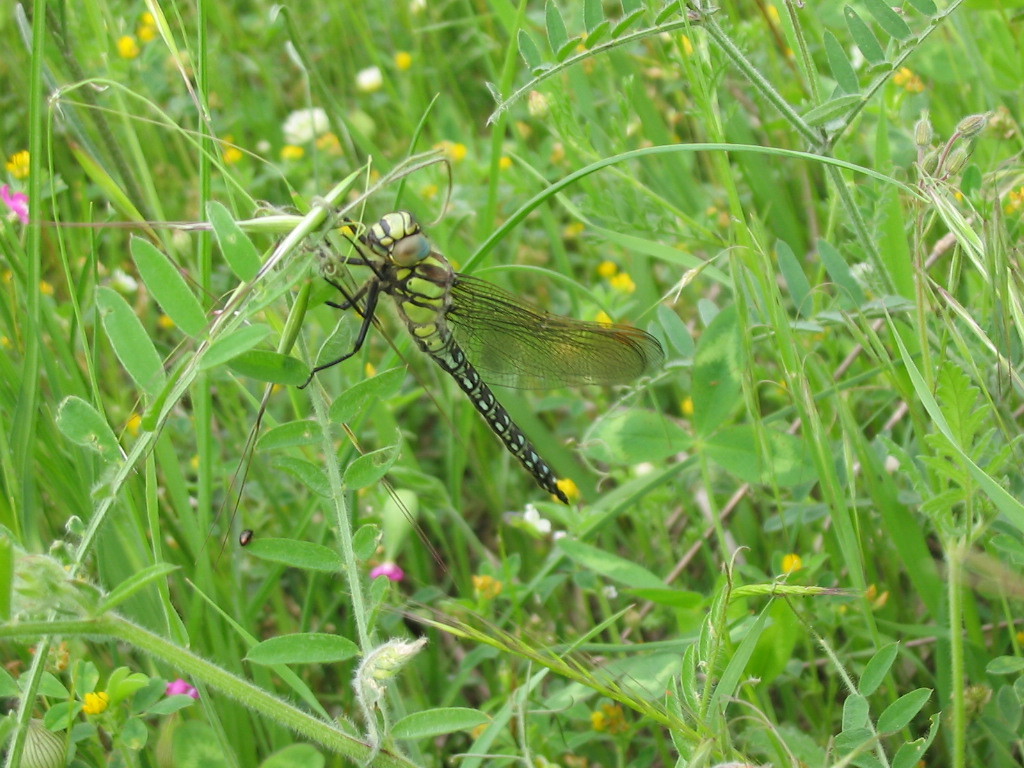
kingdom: Animalia
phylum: Arthropoda
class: Insecta
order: Odonata
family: Aeshnidae
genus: Brachytron
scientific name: Brachytron pratense
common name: Hairy hawker
